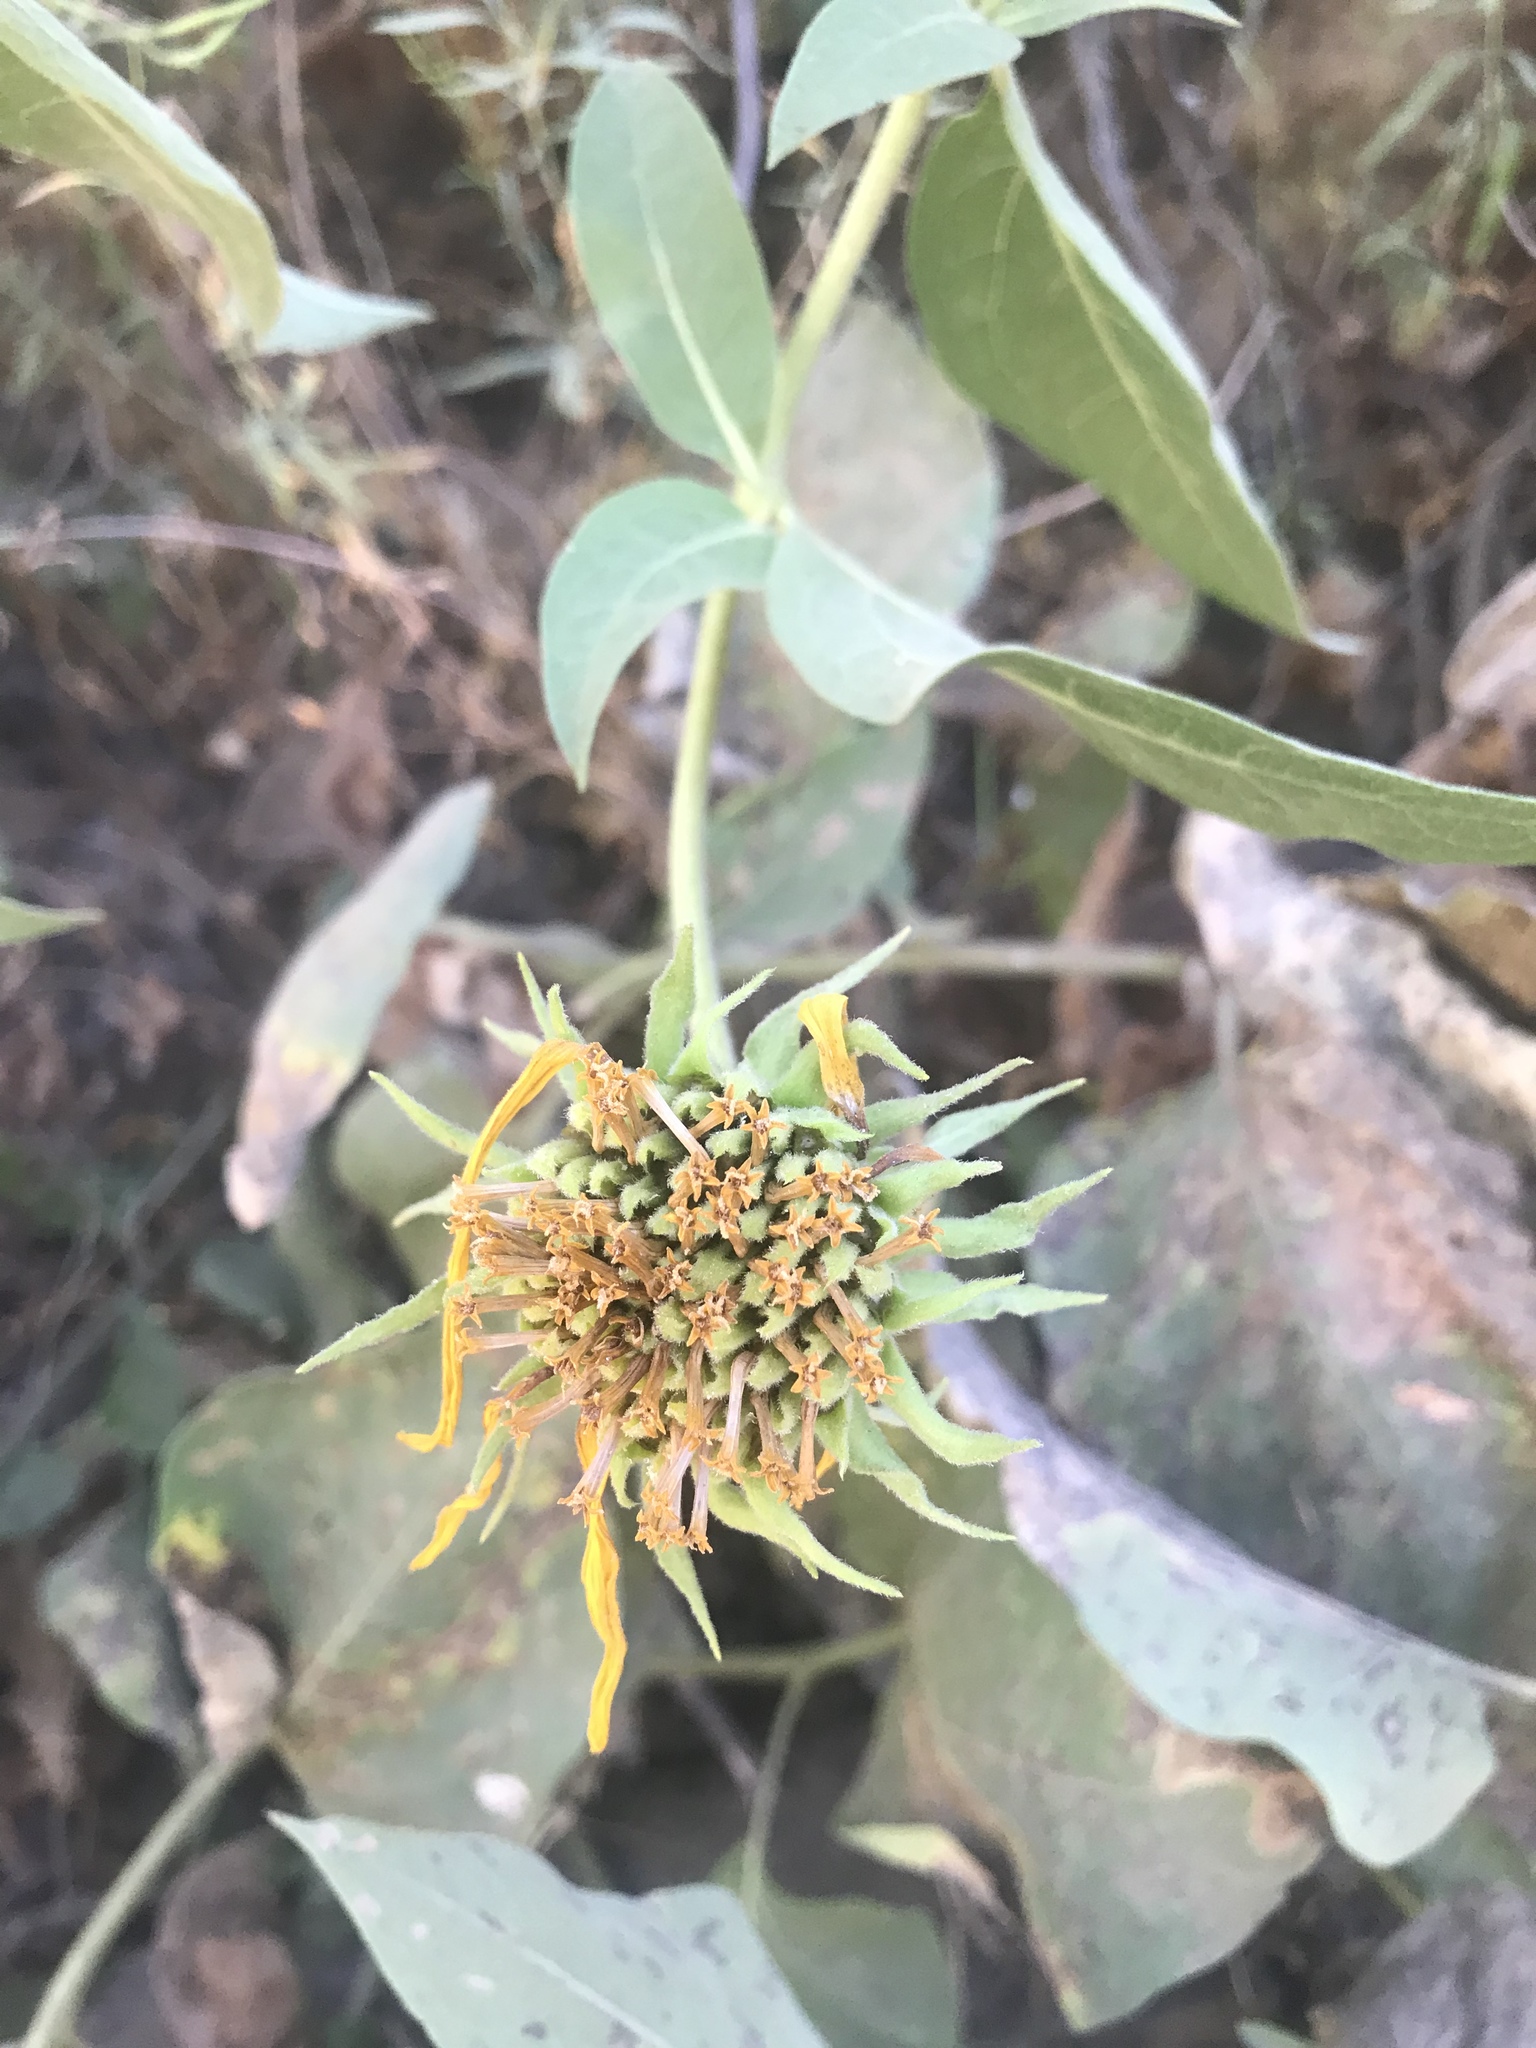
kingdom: Plantae
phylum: Tracheophyta
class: Magnoliopsida
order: Asterales
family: Asteraceae
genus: Agnorhiza
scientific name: Agnorhiza elata
